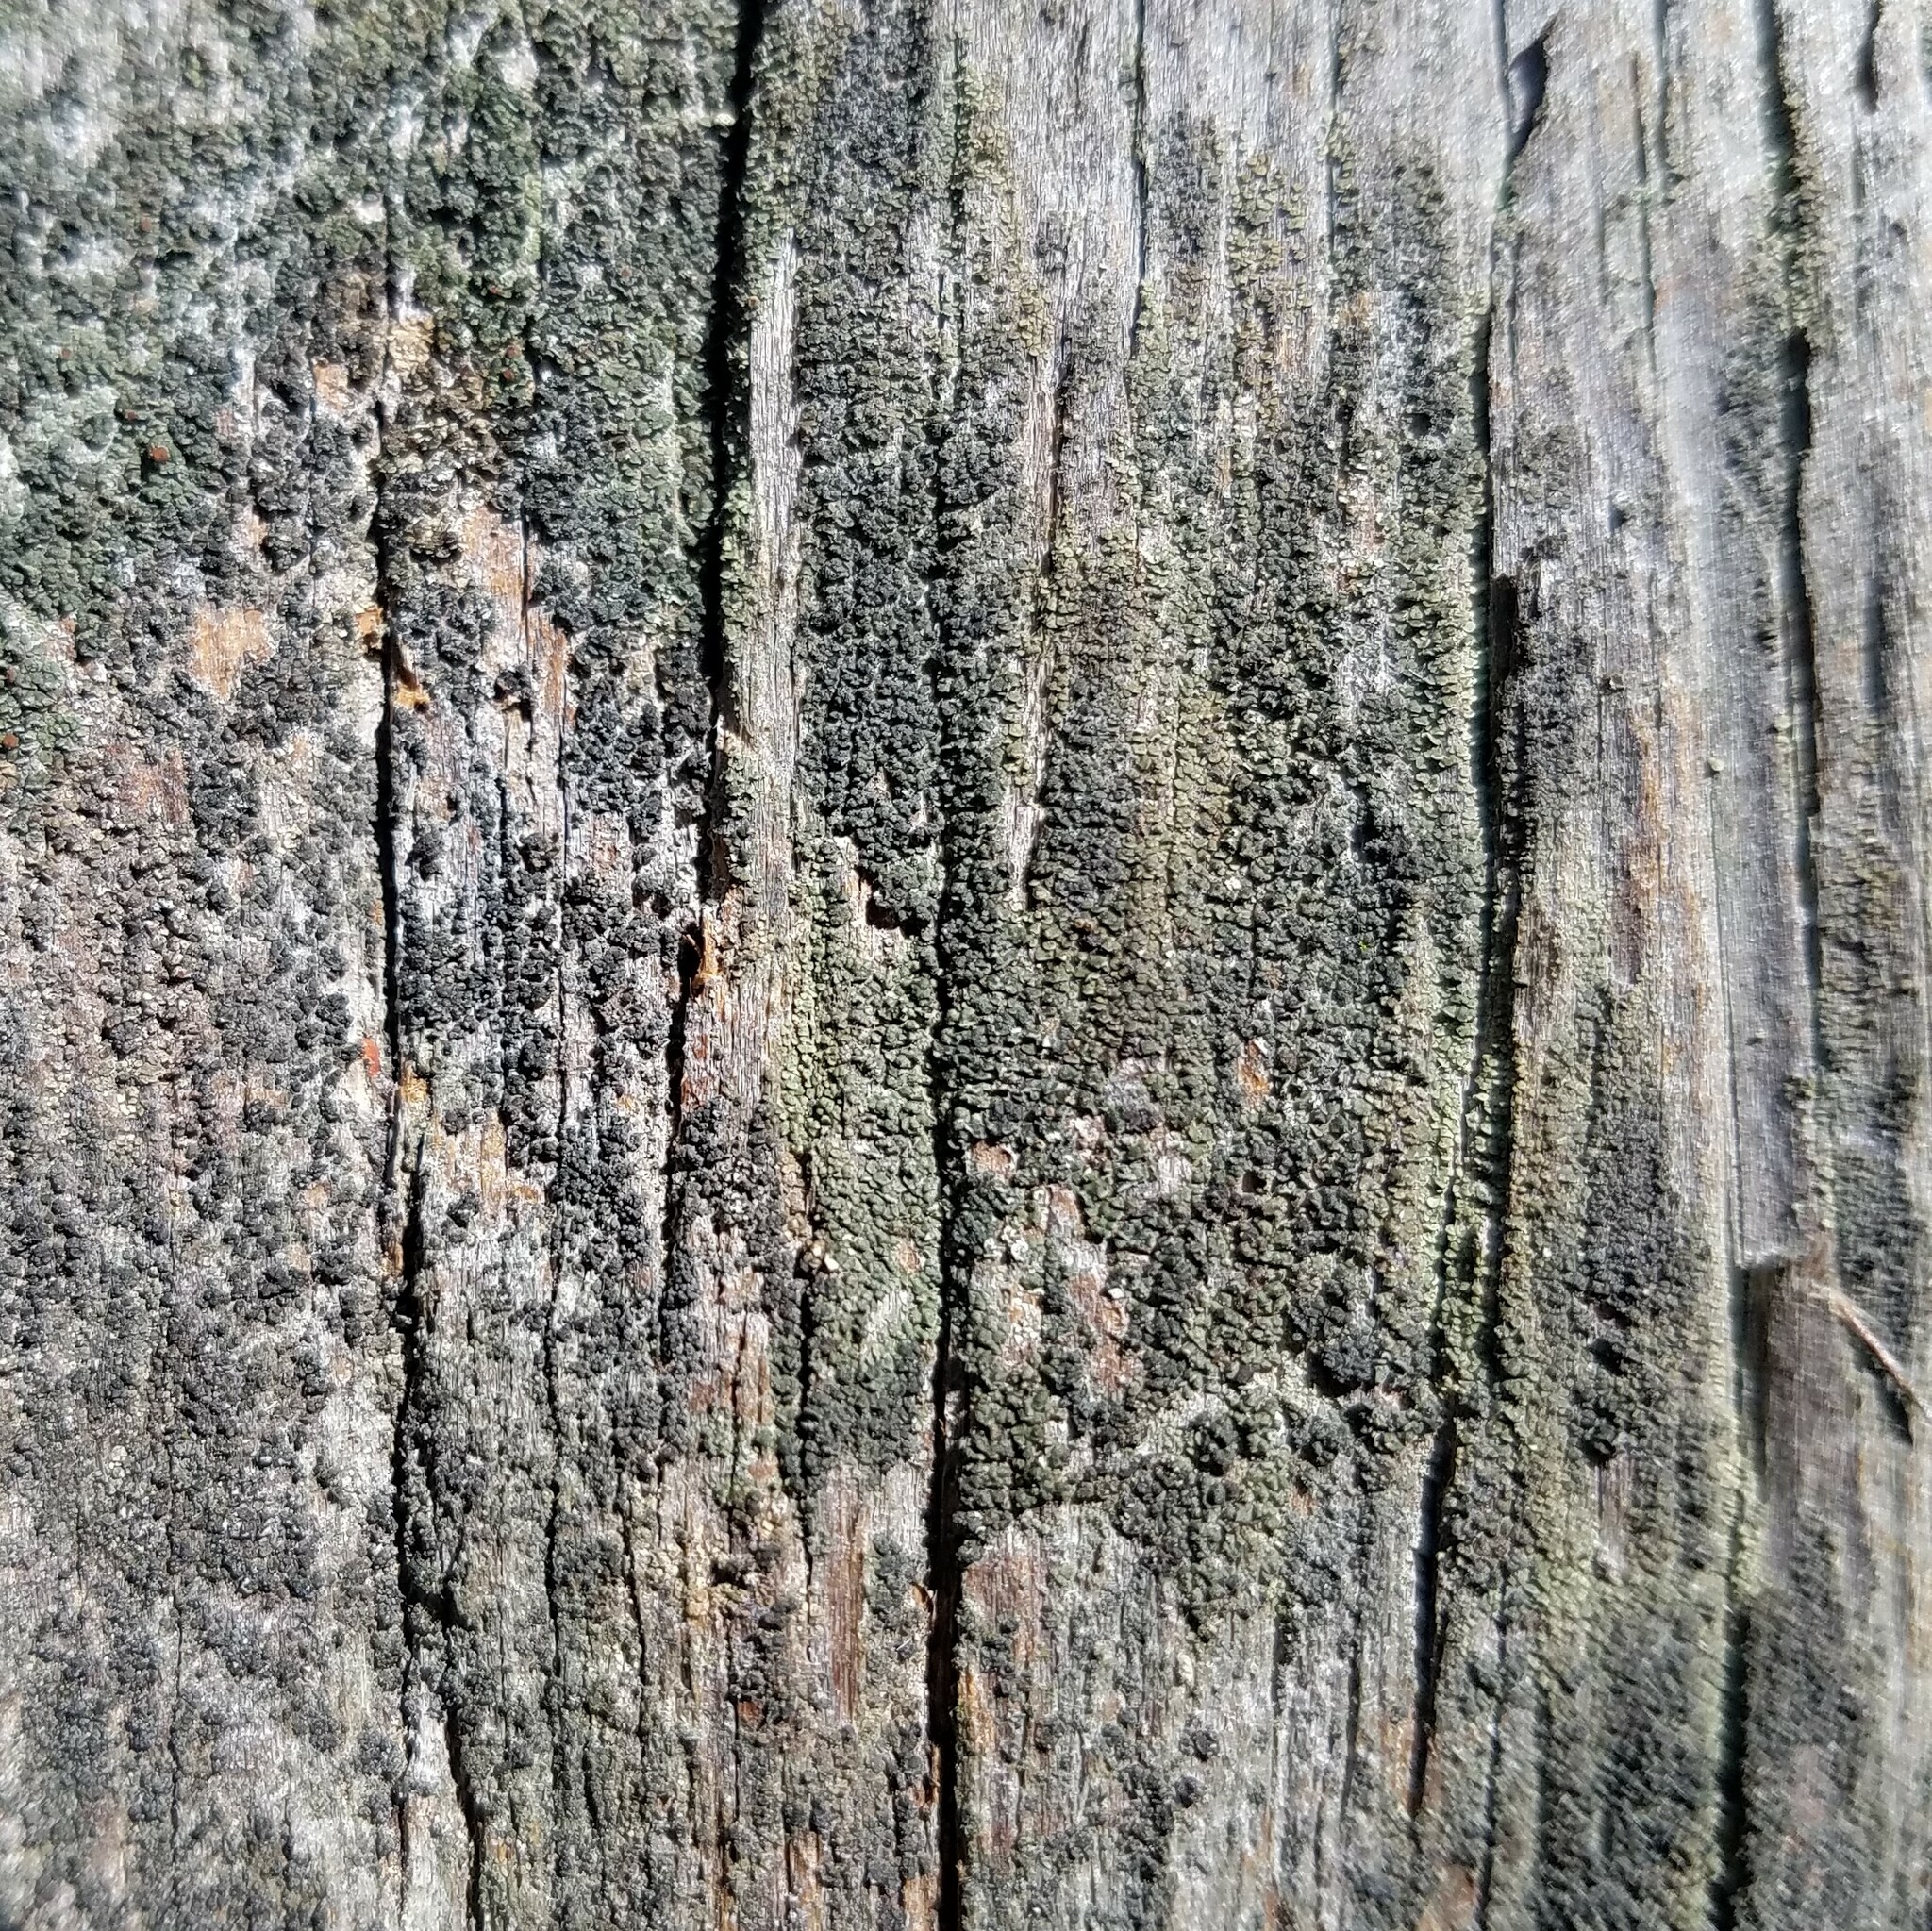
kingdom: Fungi
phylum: Ascomycota
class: Lecanoromycetes
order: Lecanorales
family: Carbonicolaceae
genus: Carbonicola
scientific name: Carbonicola anthracophila
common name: Small clam lichen
